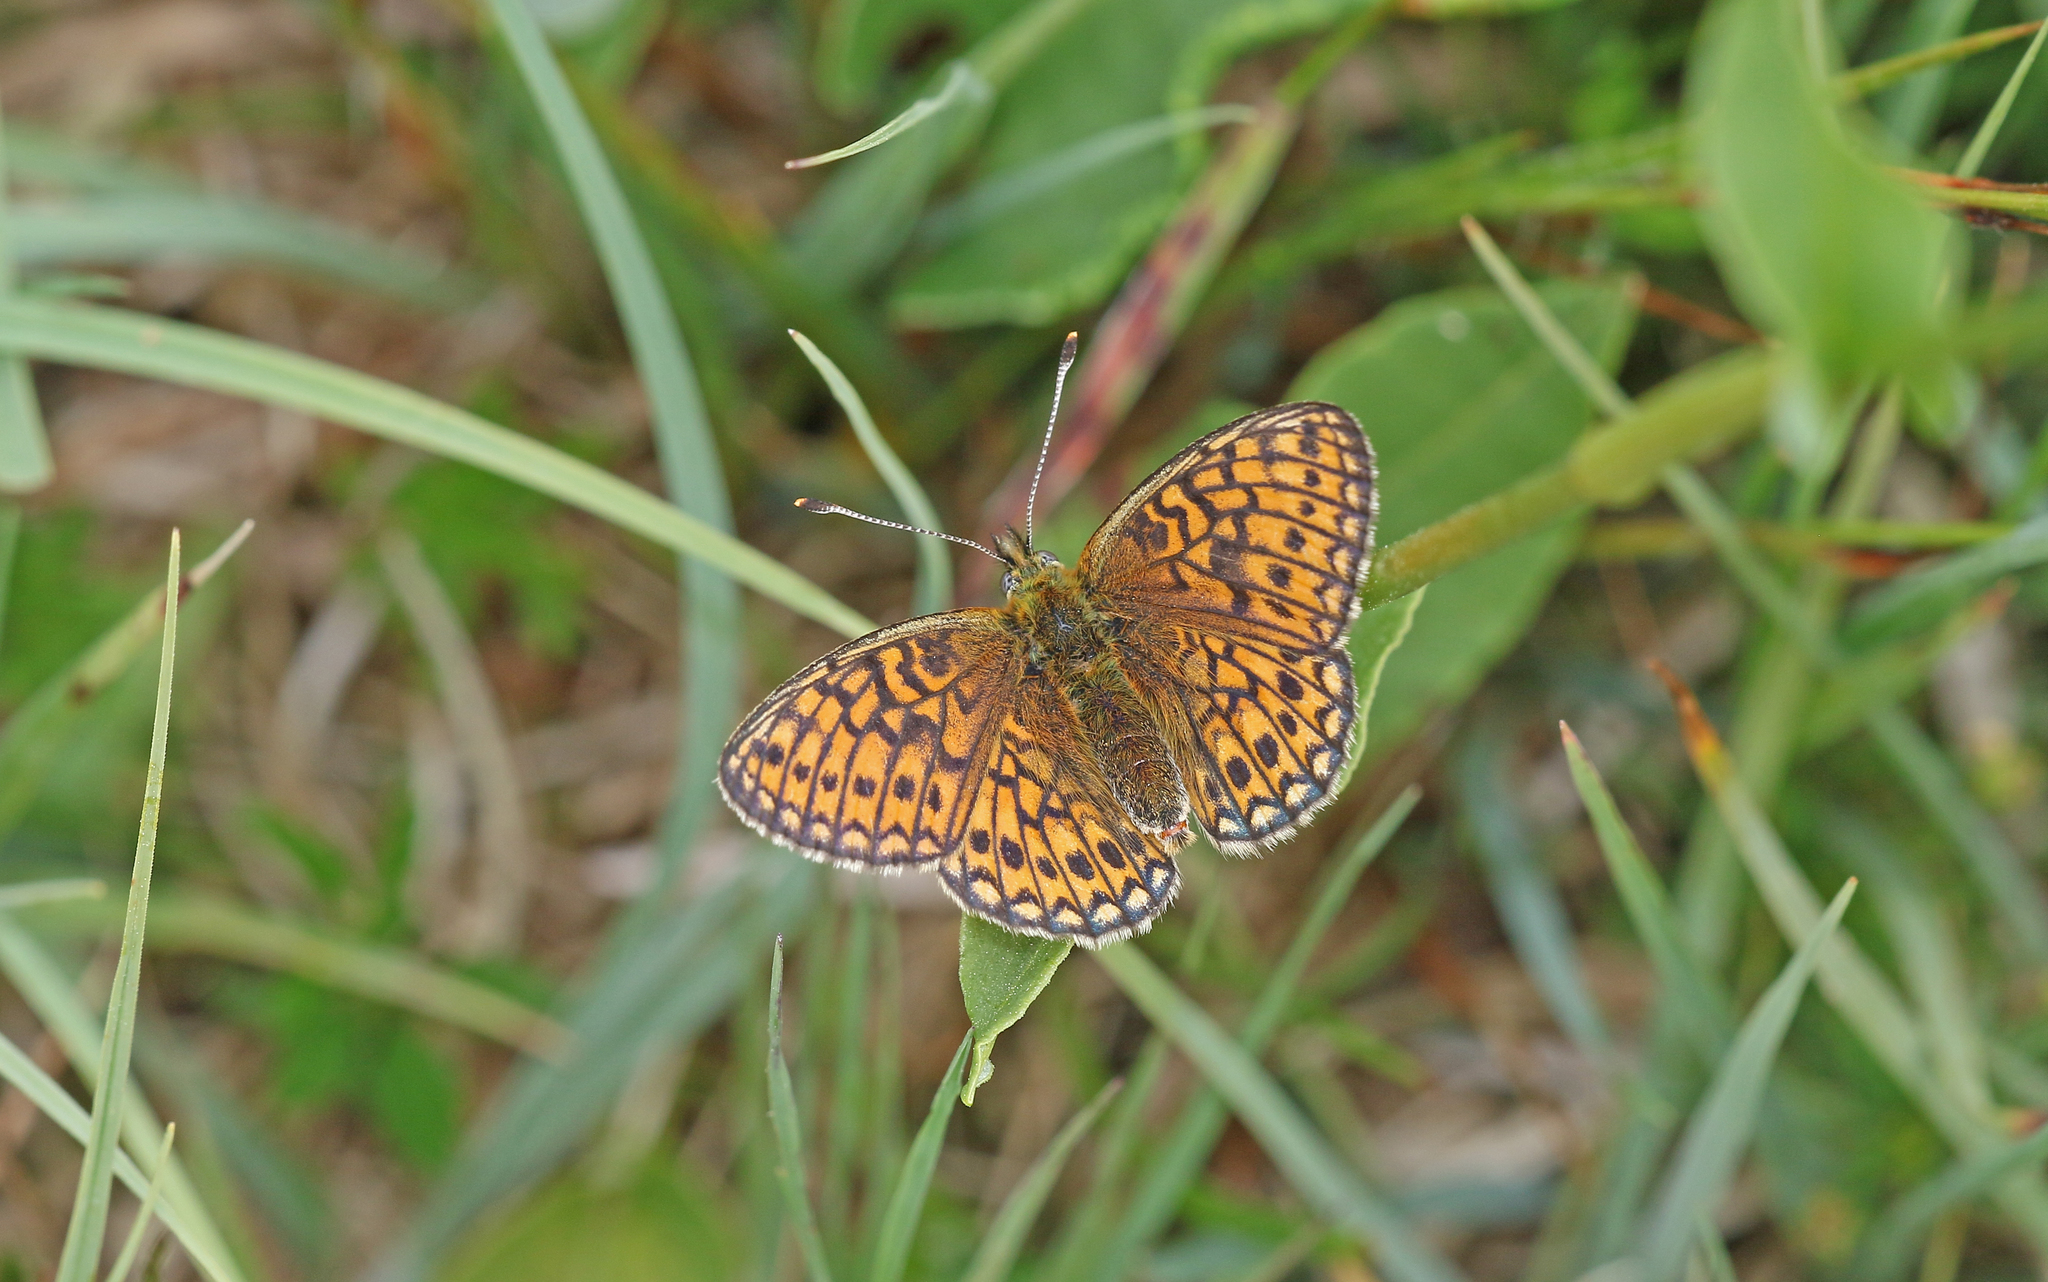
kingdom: Animalia
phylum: Arthropoda
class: Insecta
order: Lepidoptera
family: Nymphalidae
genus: Boloria
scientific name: Boloria eunomia
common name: Bog fritillary
